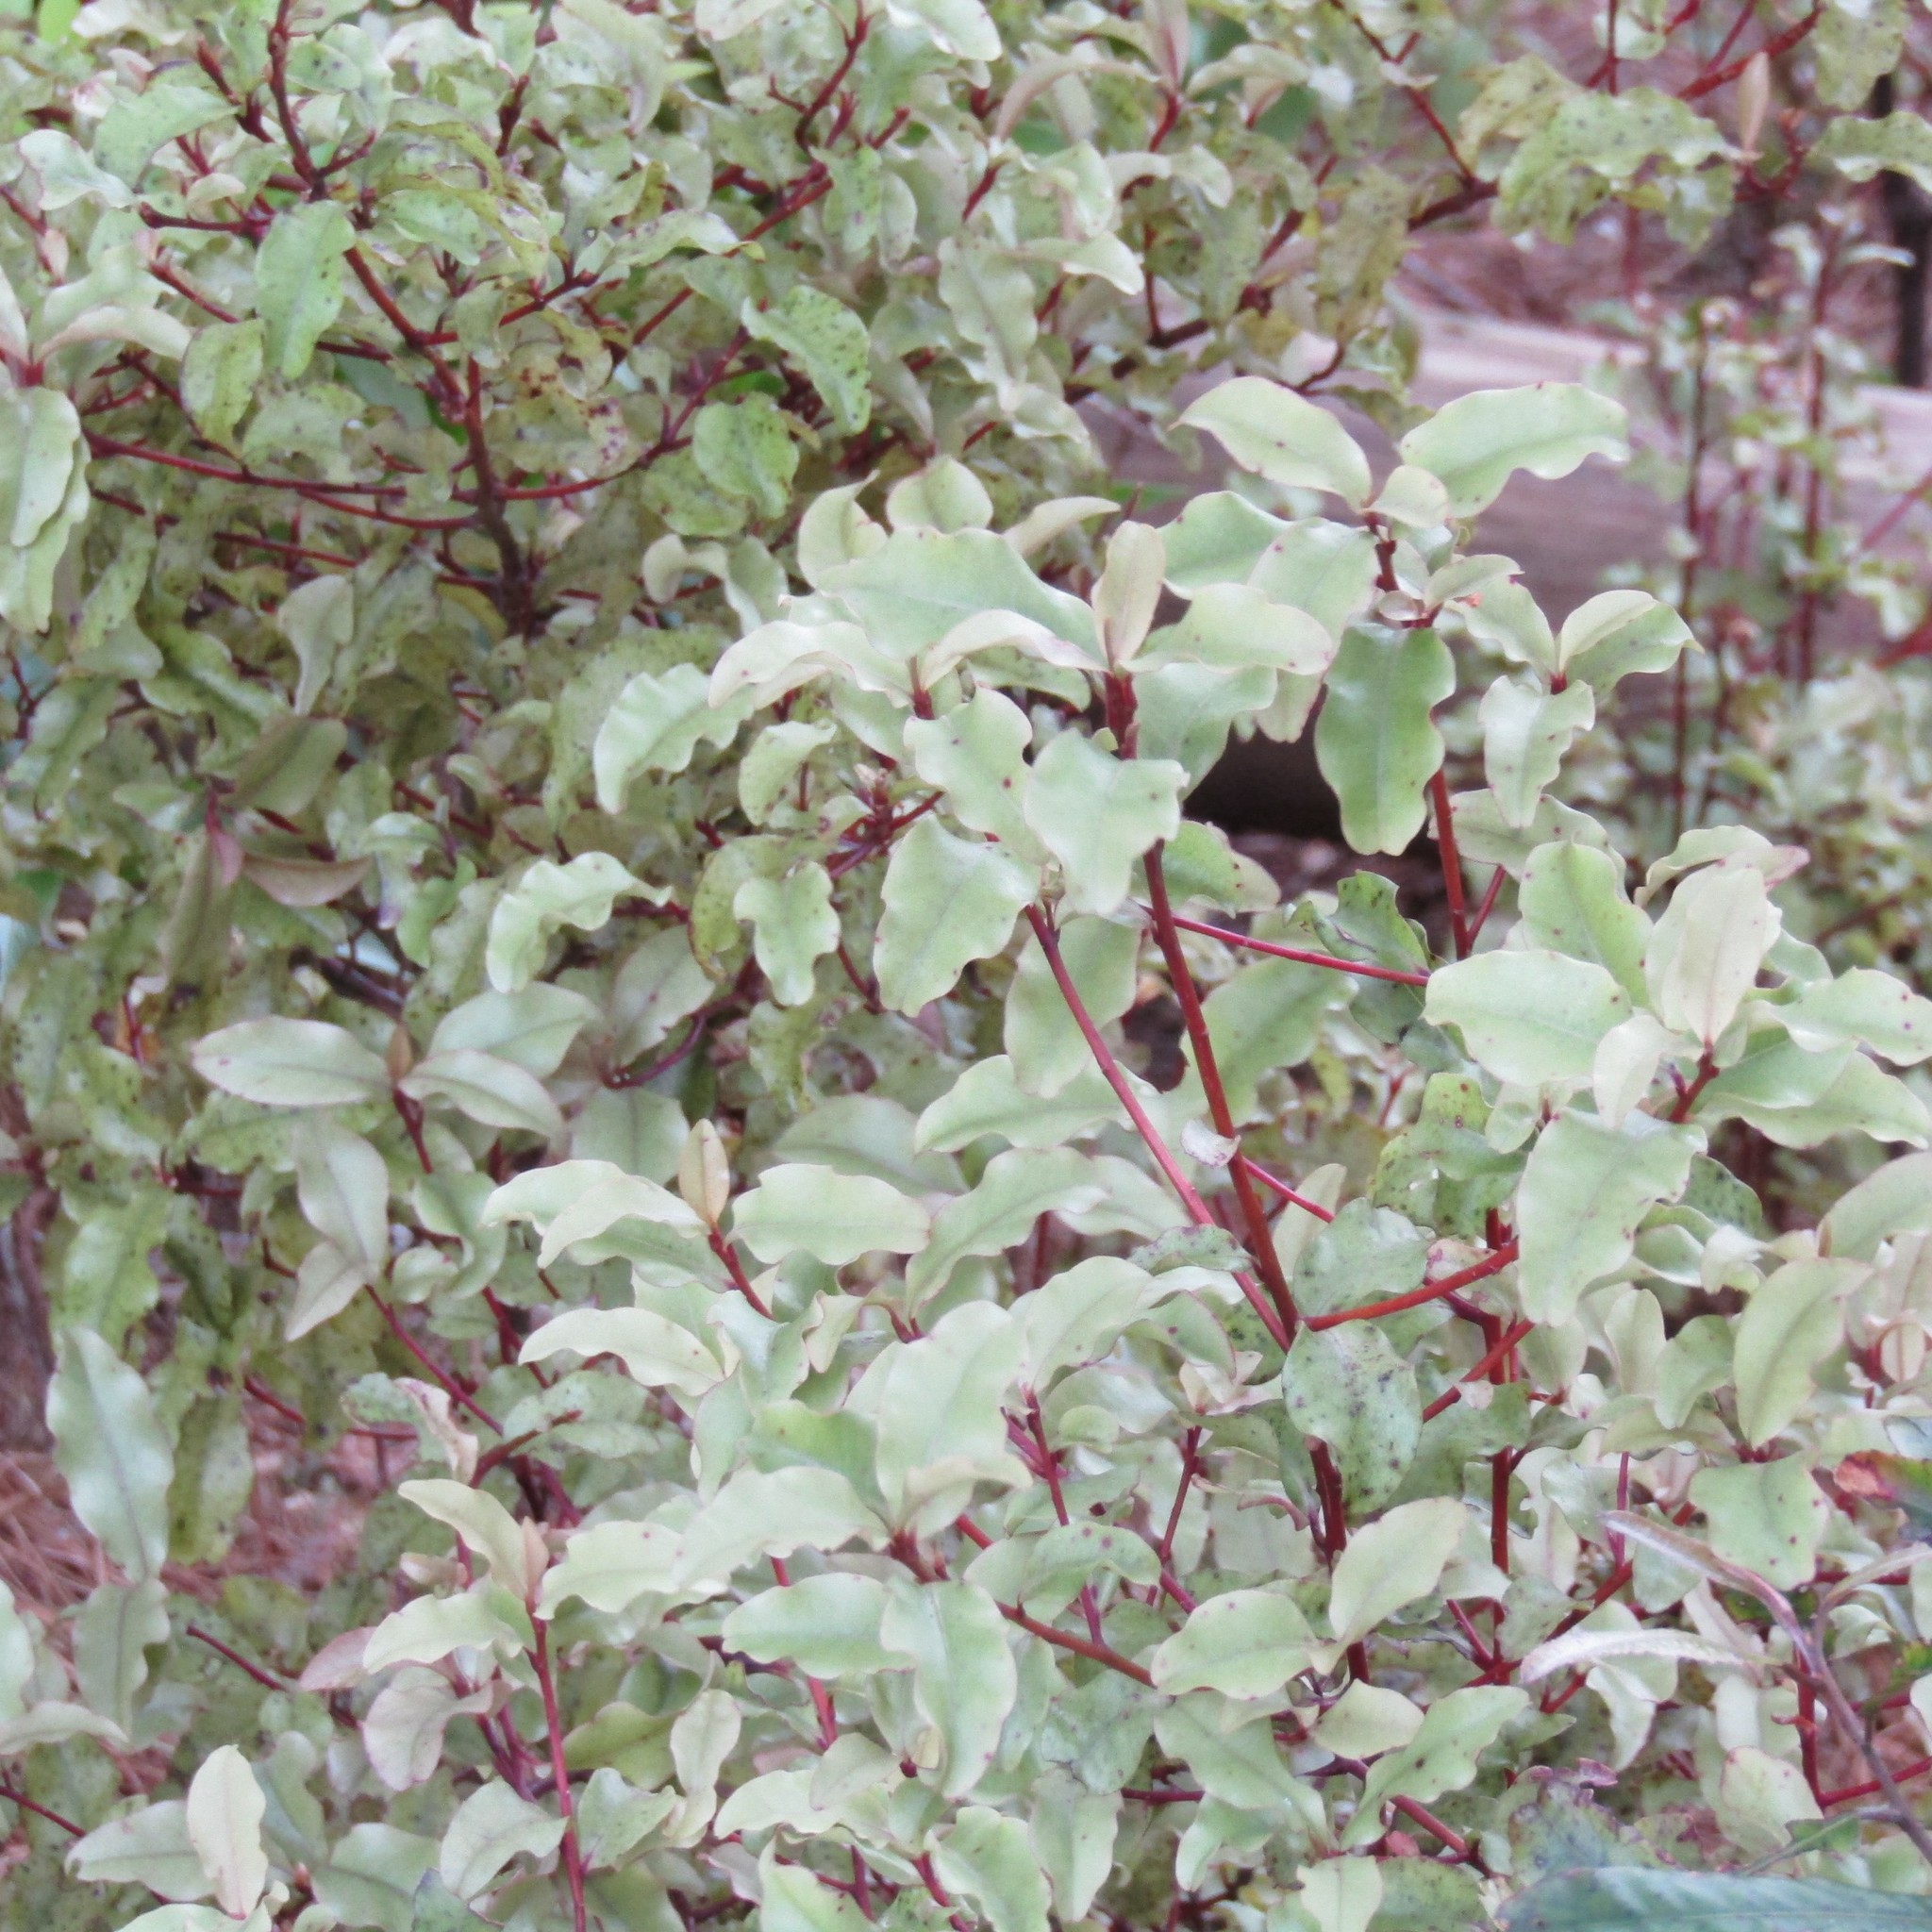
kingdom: Plantae
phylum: Tracheophyta
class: Magnoliopsida
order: Ericales
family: Primulaceae
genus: Myrsine
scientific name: Myrsine australis
